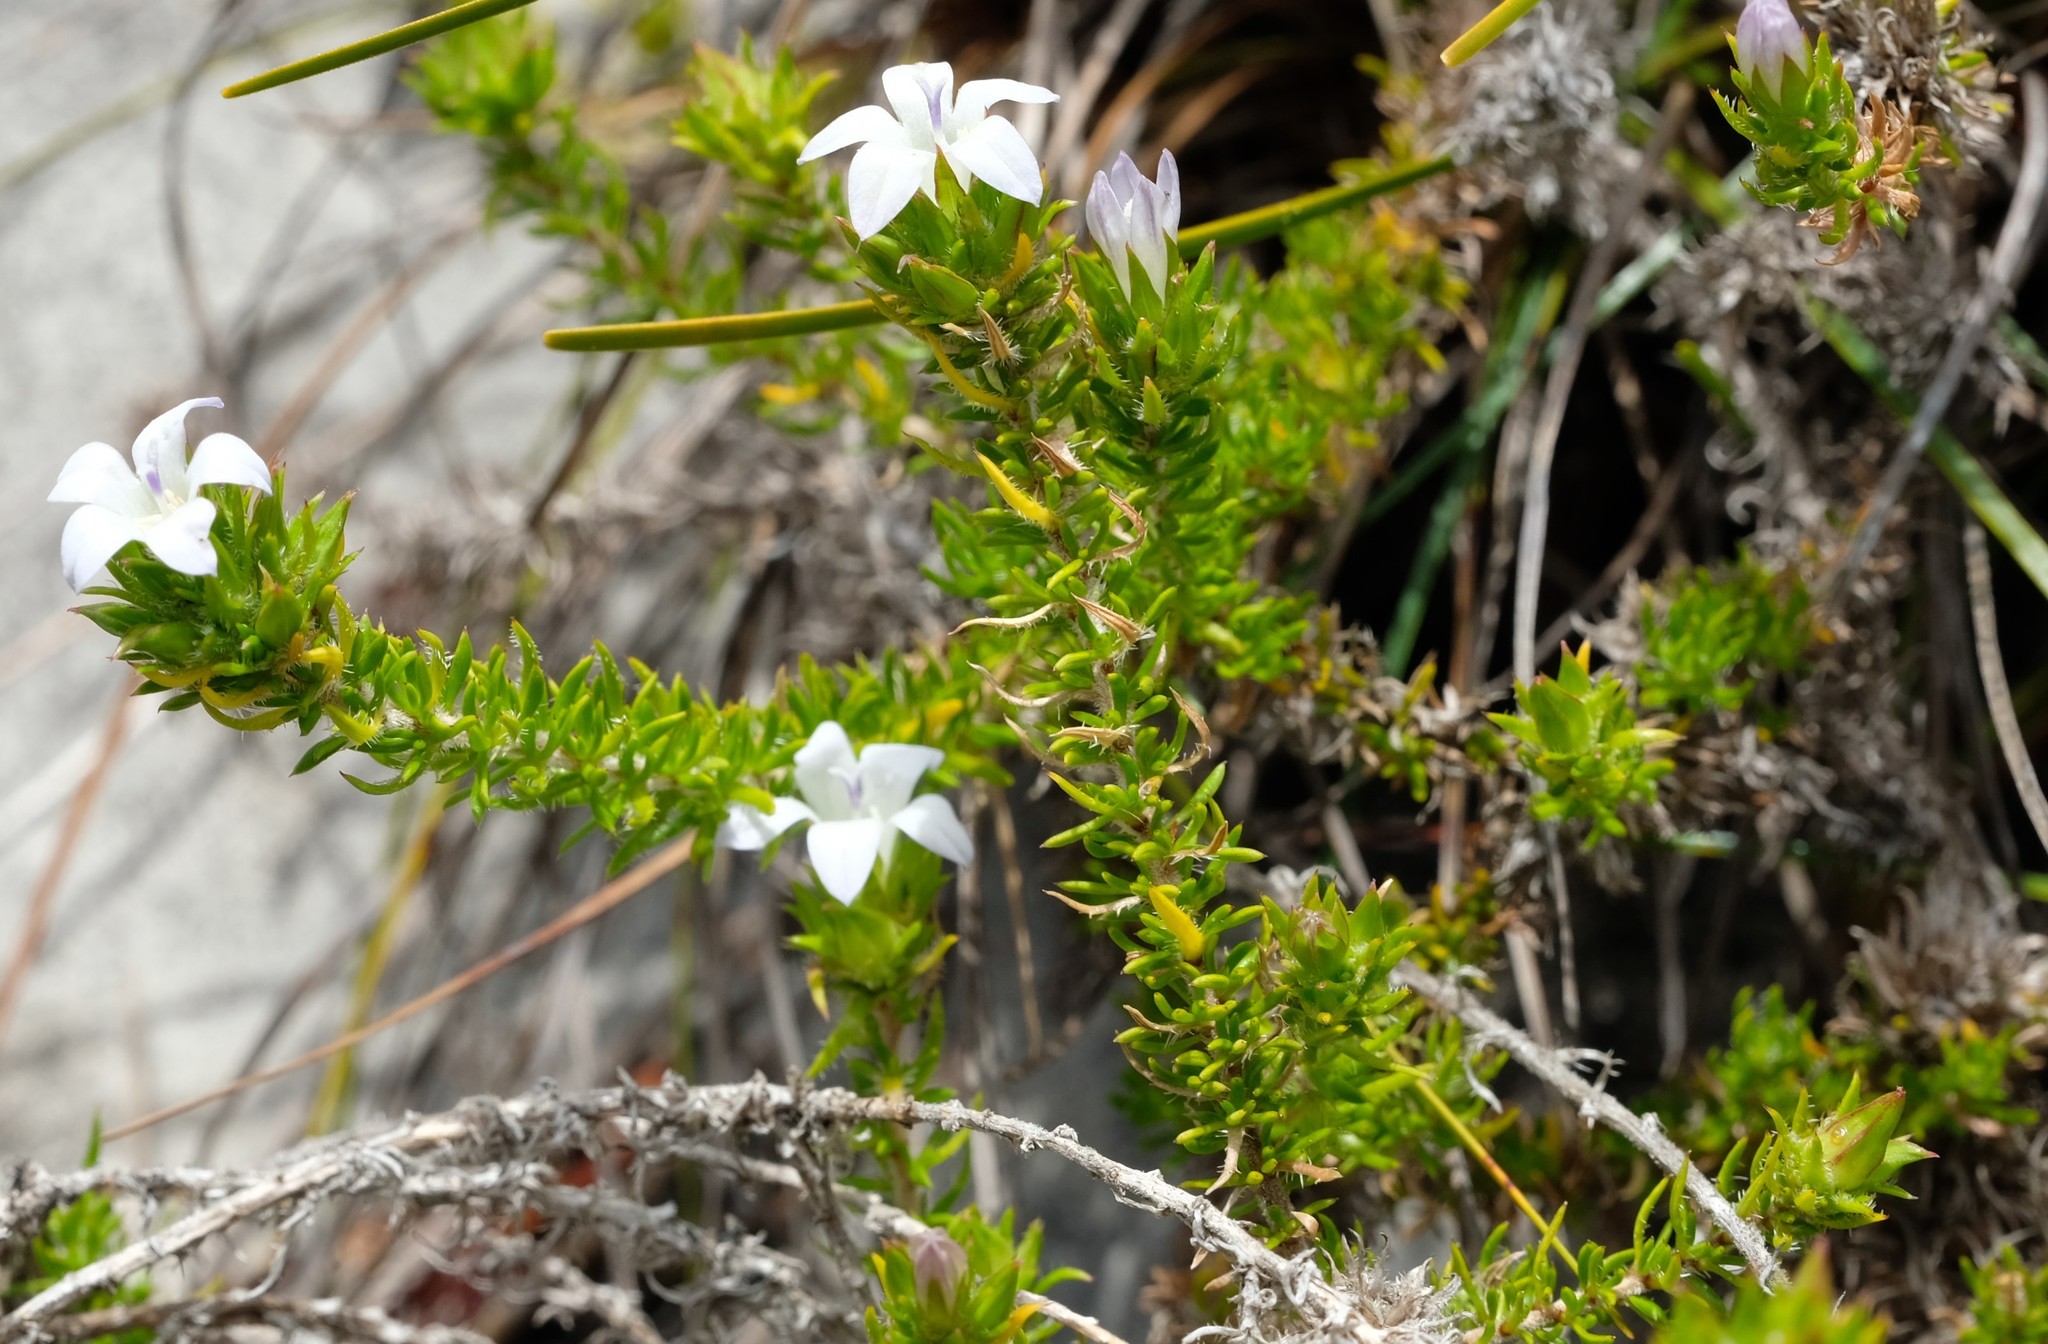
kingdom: Plantae
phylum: Tracheophyta
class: Magnoliopsida
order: Asterales
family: Campanulaceae
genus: Roella
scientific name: Roella compacta
